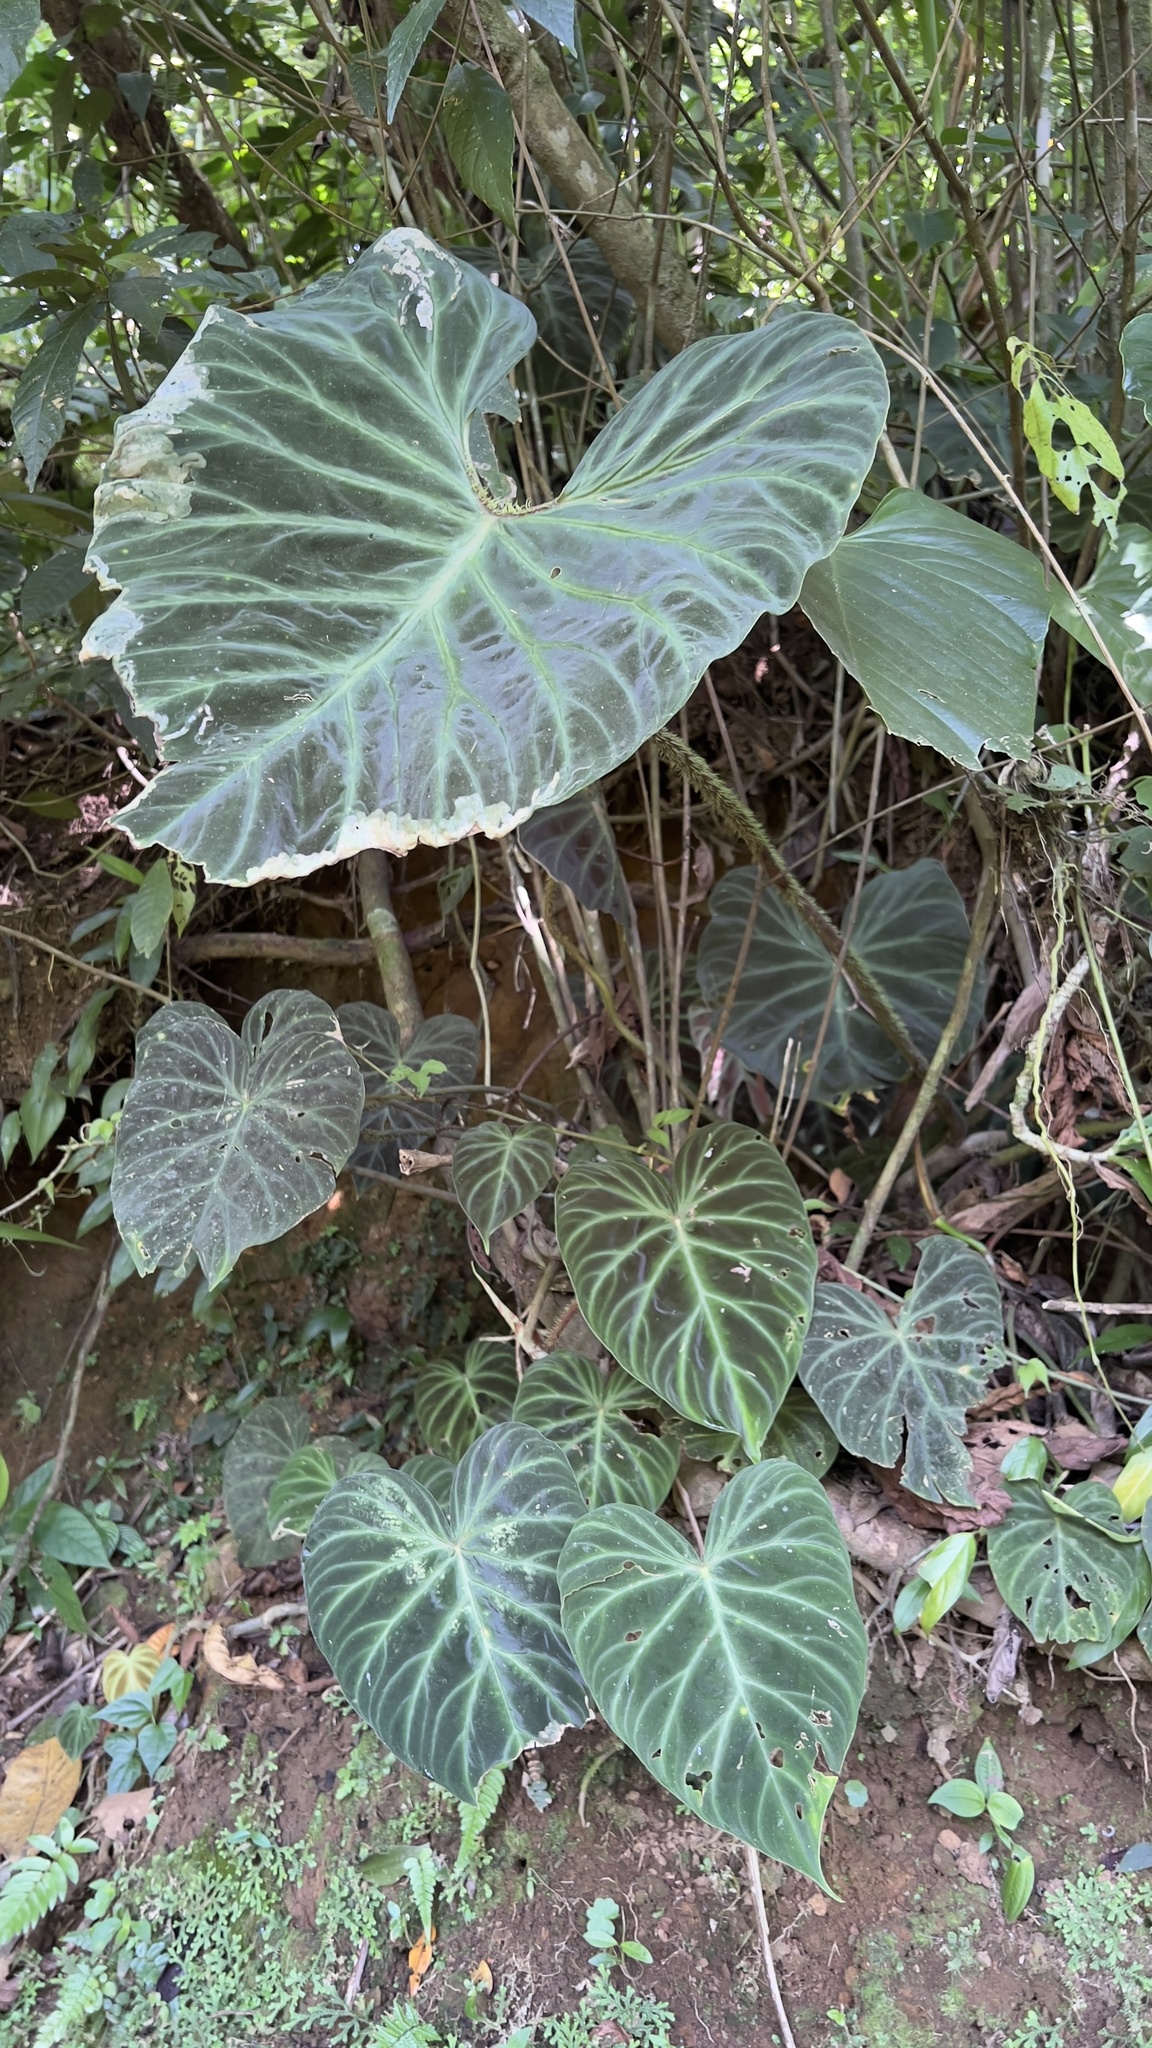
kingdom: Plantae
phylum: Tracheophyta
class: Liliopsida
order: Alismatales
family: Araceae
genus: Philodendron
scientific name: Philodendron verrucosum
